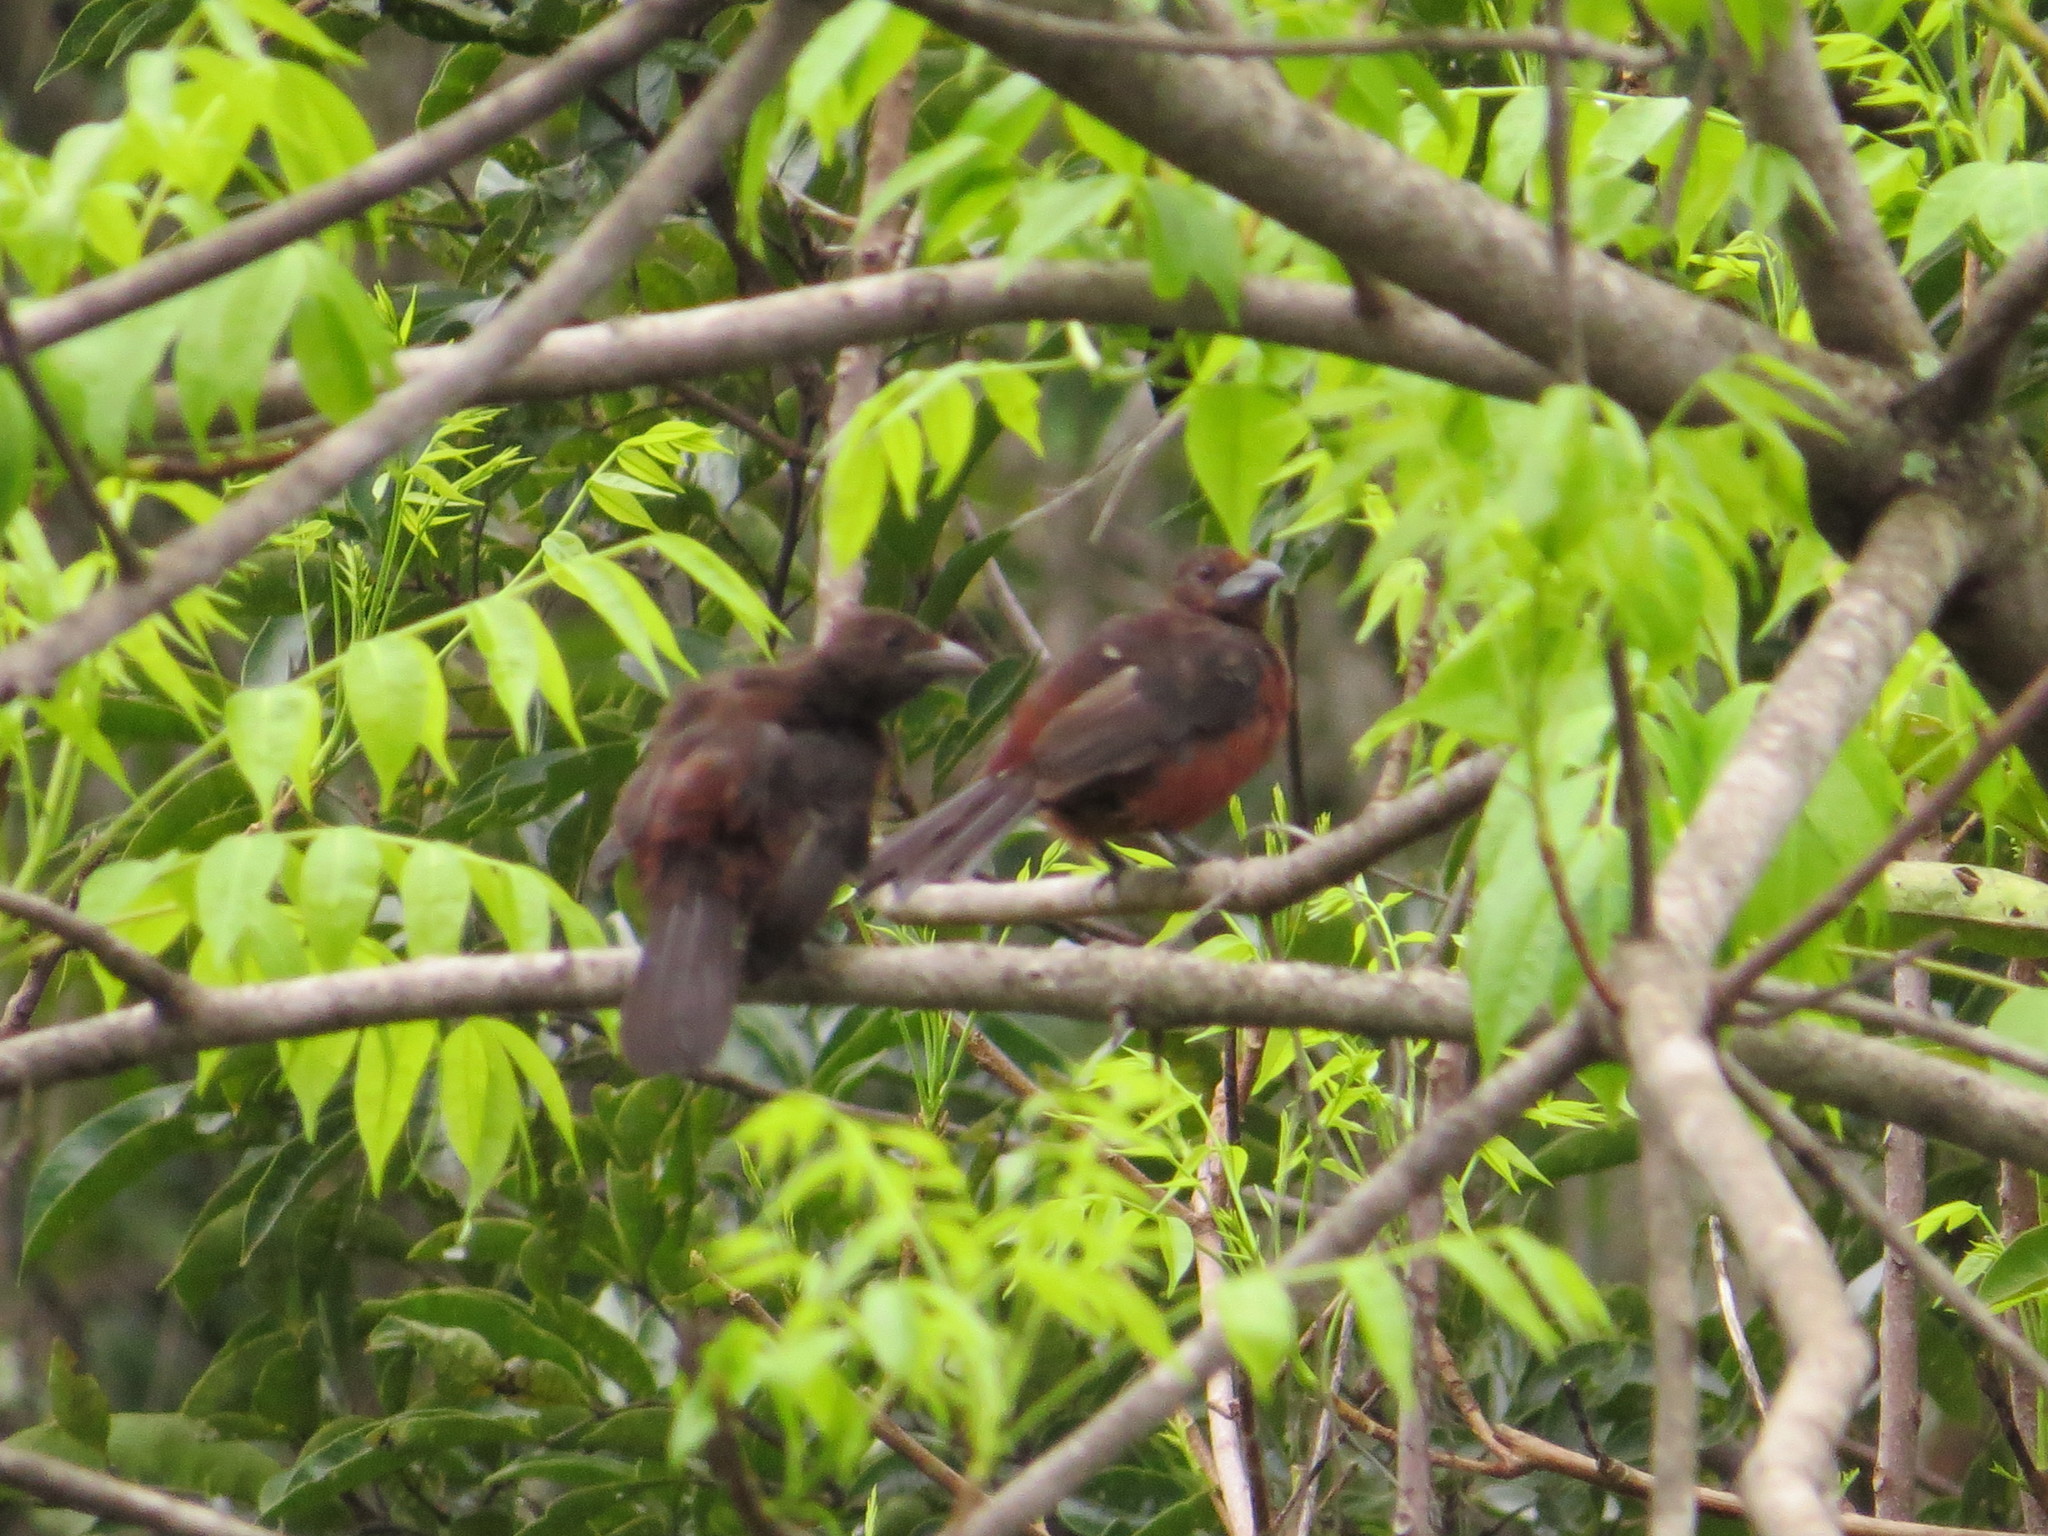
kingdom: Animalia
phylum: Chordata
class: Aves
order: Passeriformes
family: Thraupidae
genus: Ramphocelus
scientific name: Ramphocelus carbo
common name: Silver-beaked tanager
